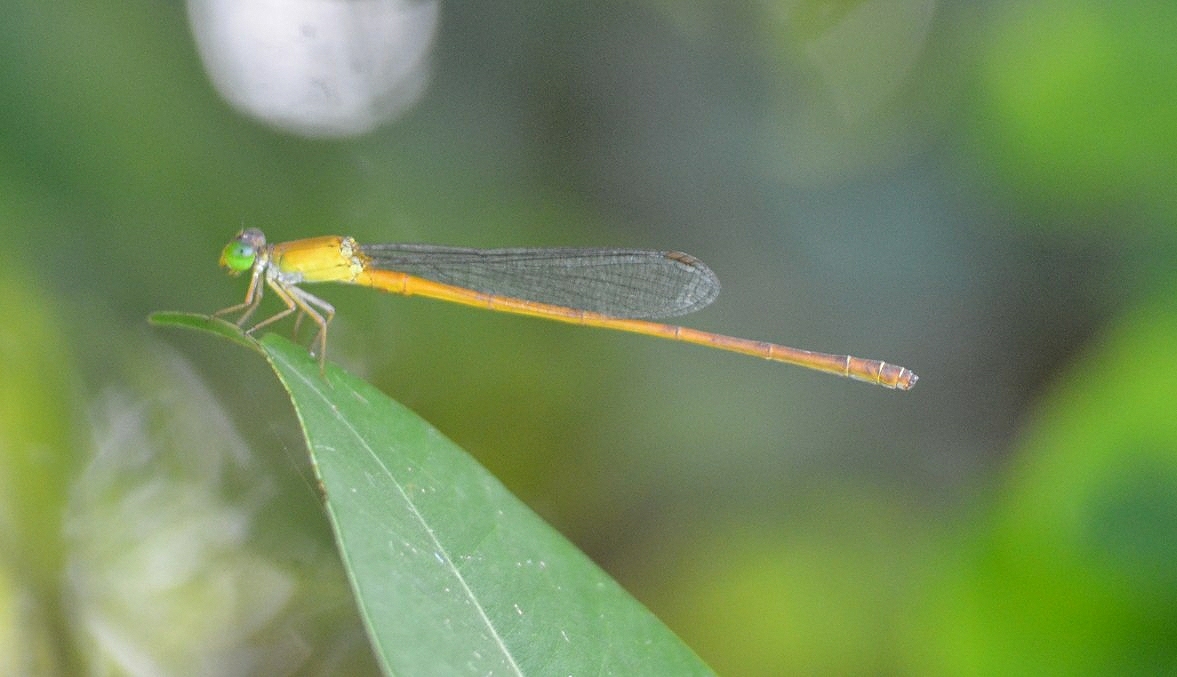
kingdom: Animalia
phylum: Arthropoda
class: Insecta
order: Odonata
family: Coenagrionidae
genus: Ceriagrion
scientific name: Ceriagrion olivaceum
